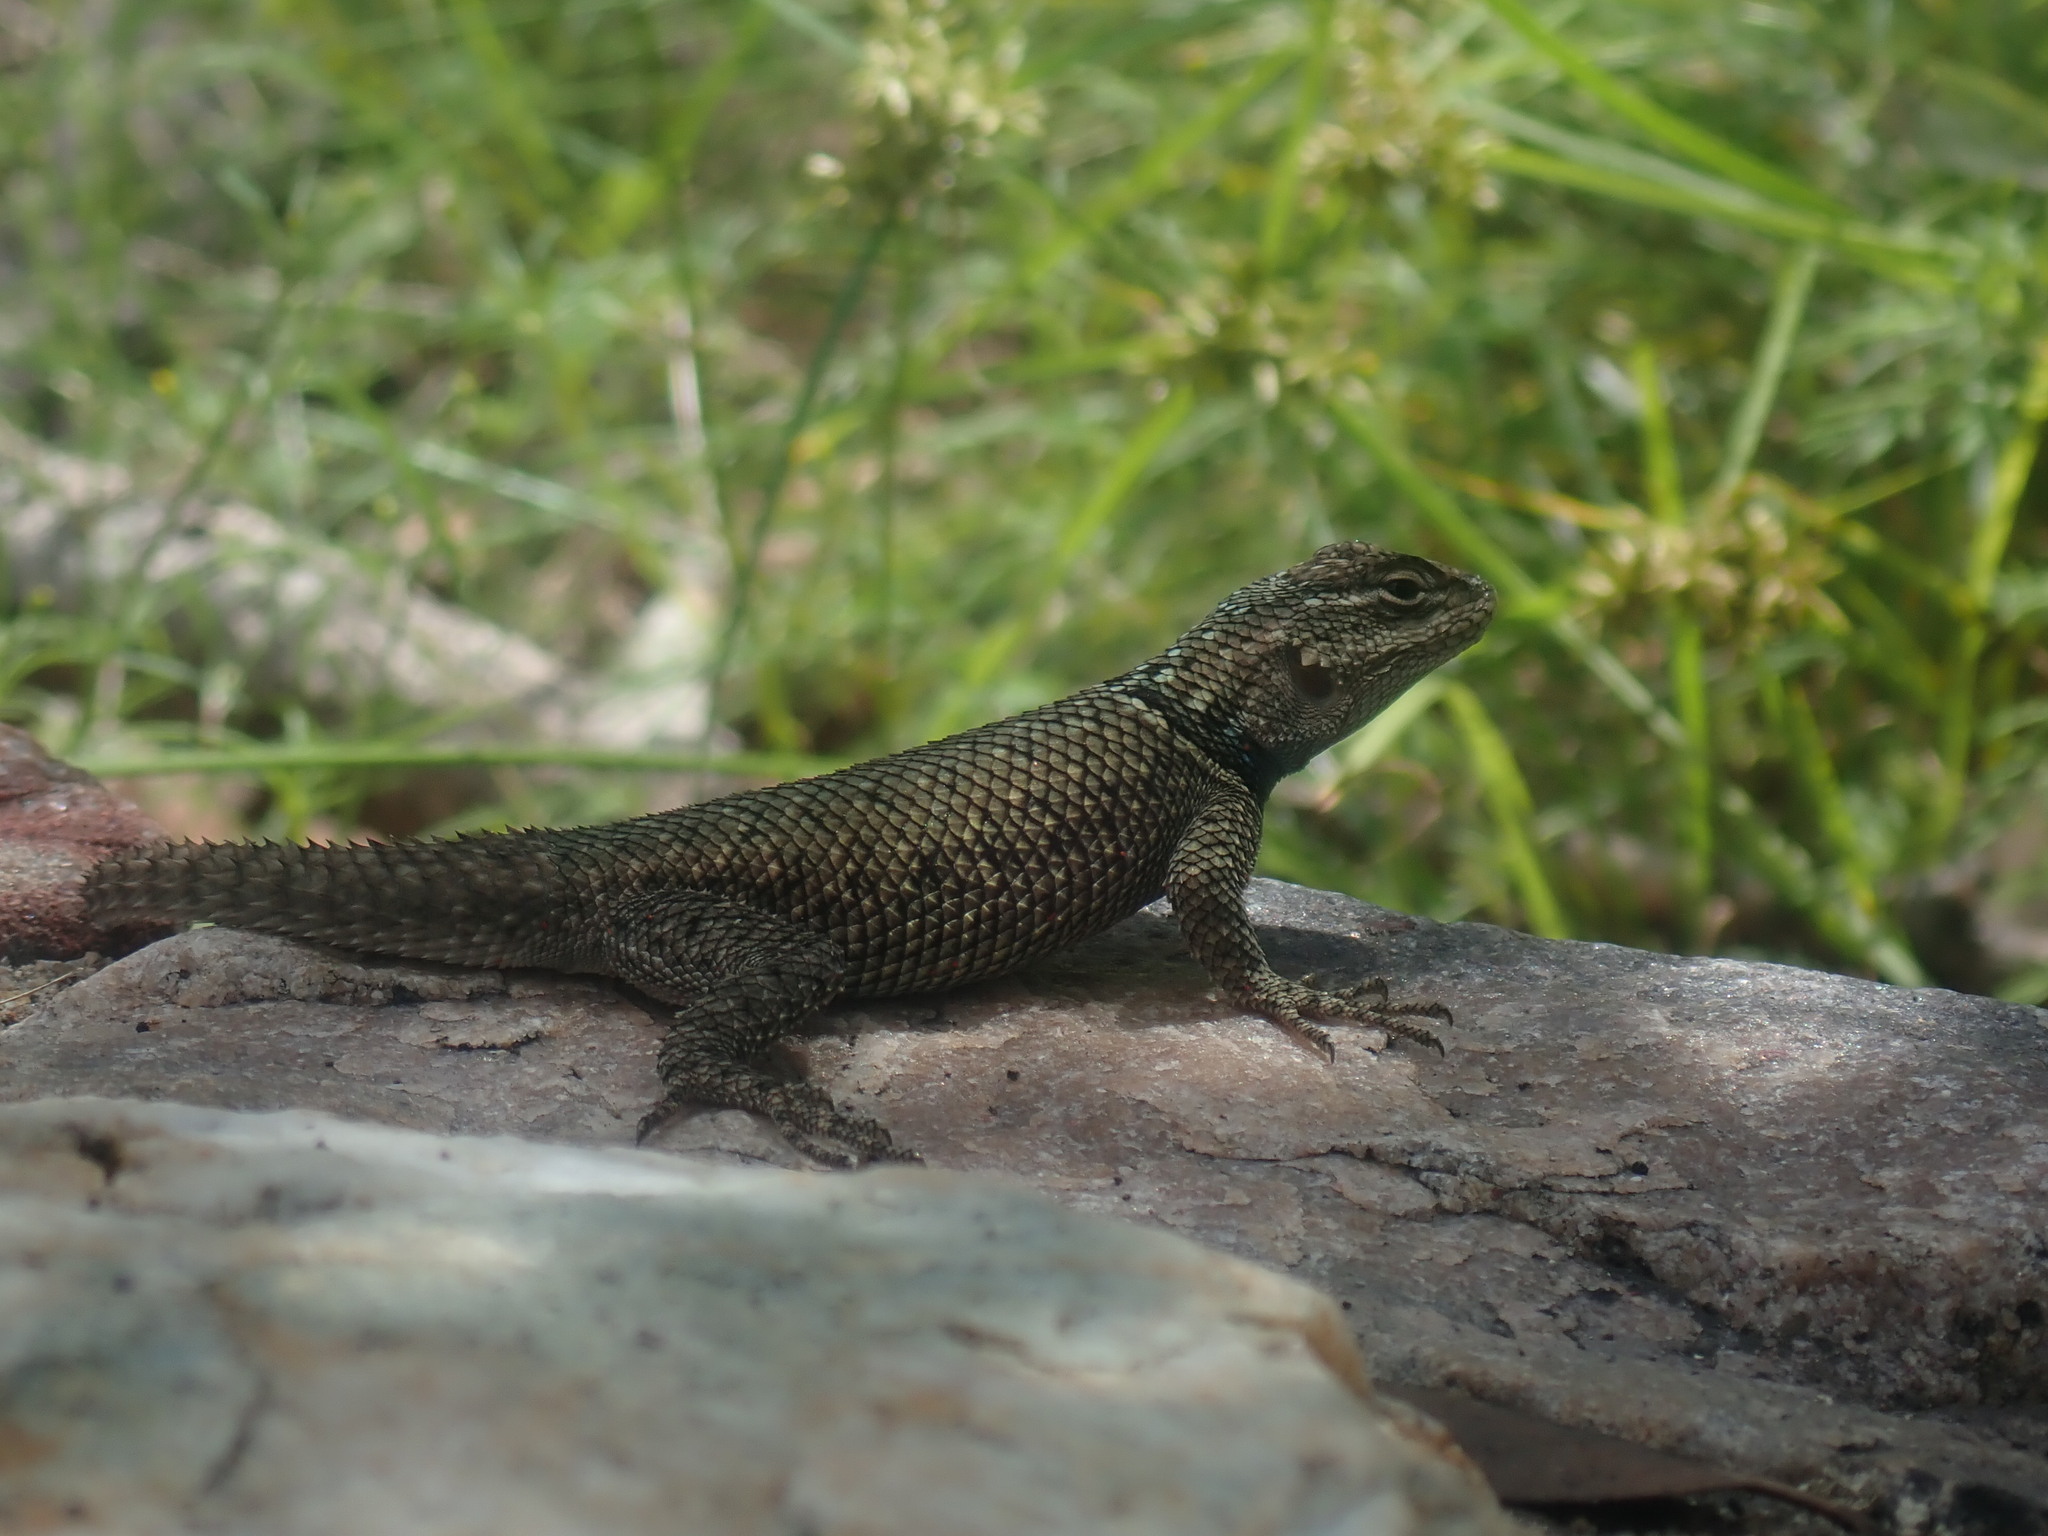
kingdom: Animalia
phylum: Chordata
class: Squamata
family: Phrynosomatidae
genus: Sceloporus
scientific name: Sceloporus jarrovii
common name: Yarrow's spiny lizard
